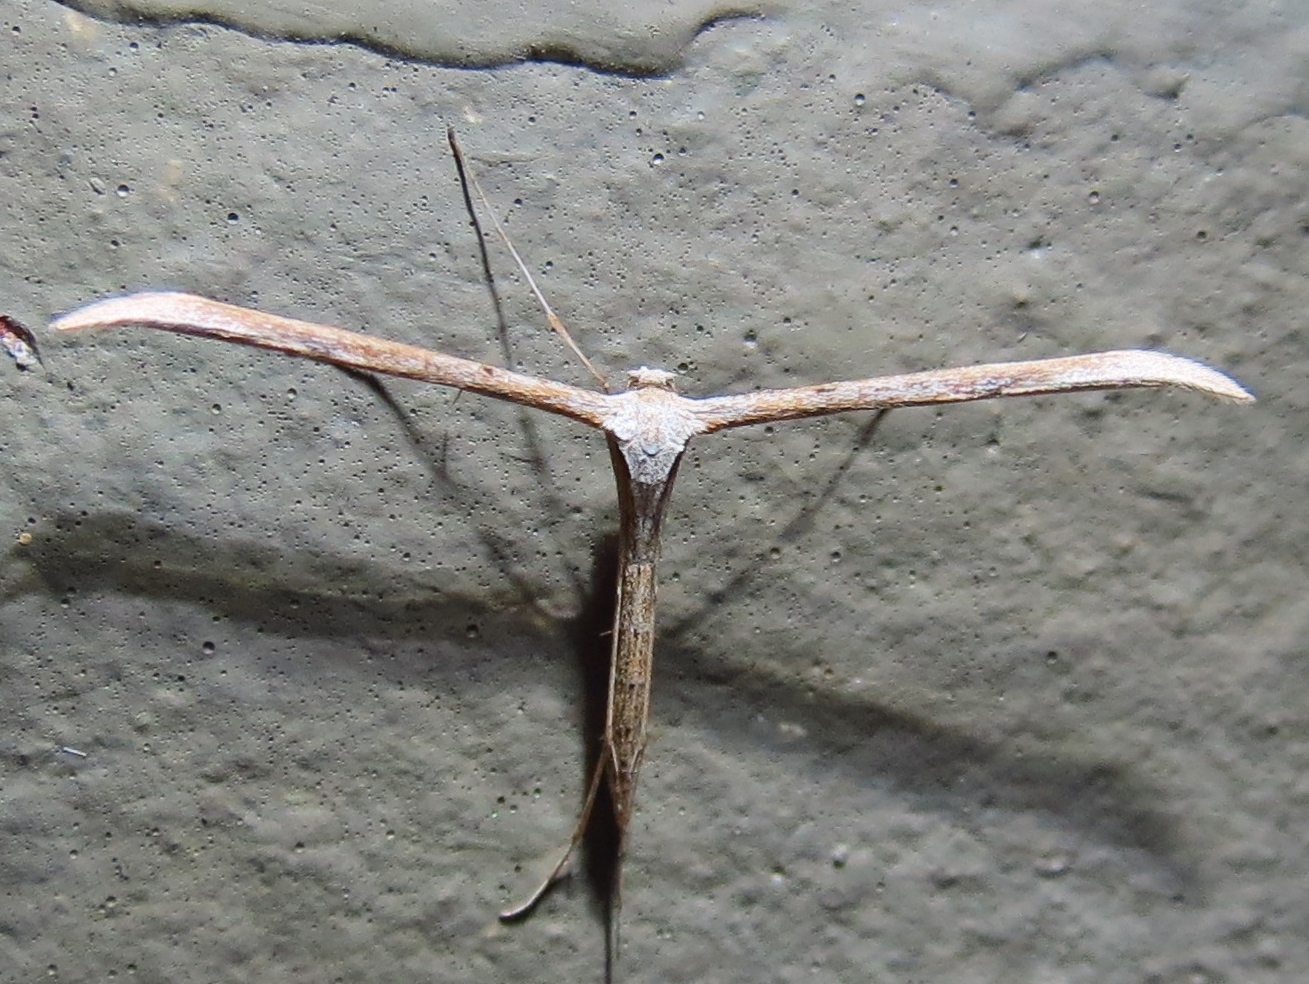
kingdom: Animalia
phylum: Arthropoda
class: Insecta
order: Lepidoptera
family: Pterophoridae
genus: Emmelina
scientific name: Emmelina monodactyla
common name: Common plume
